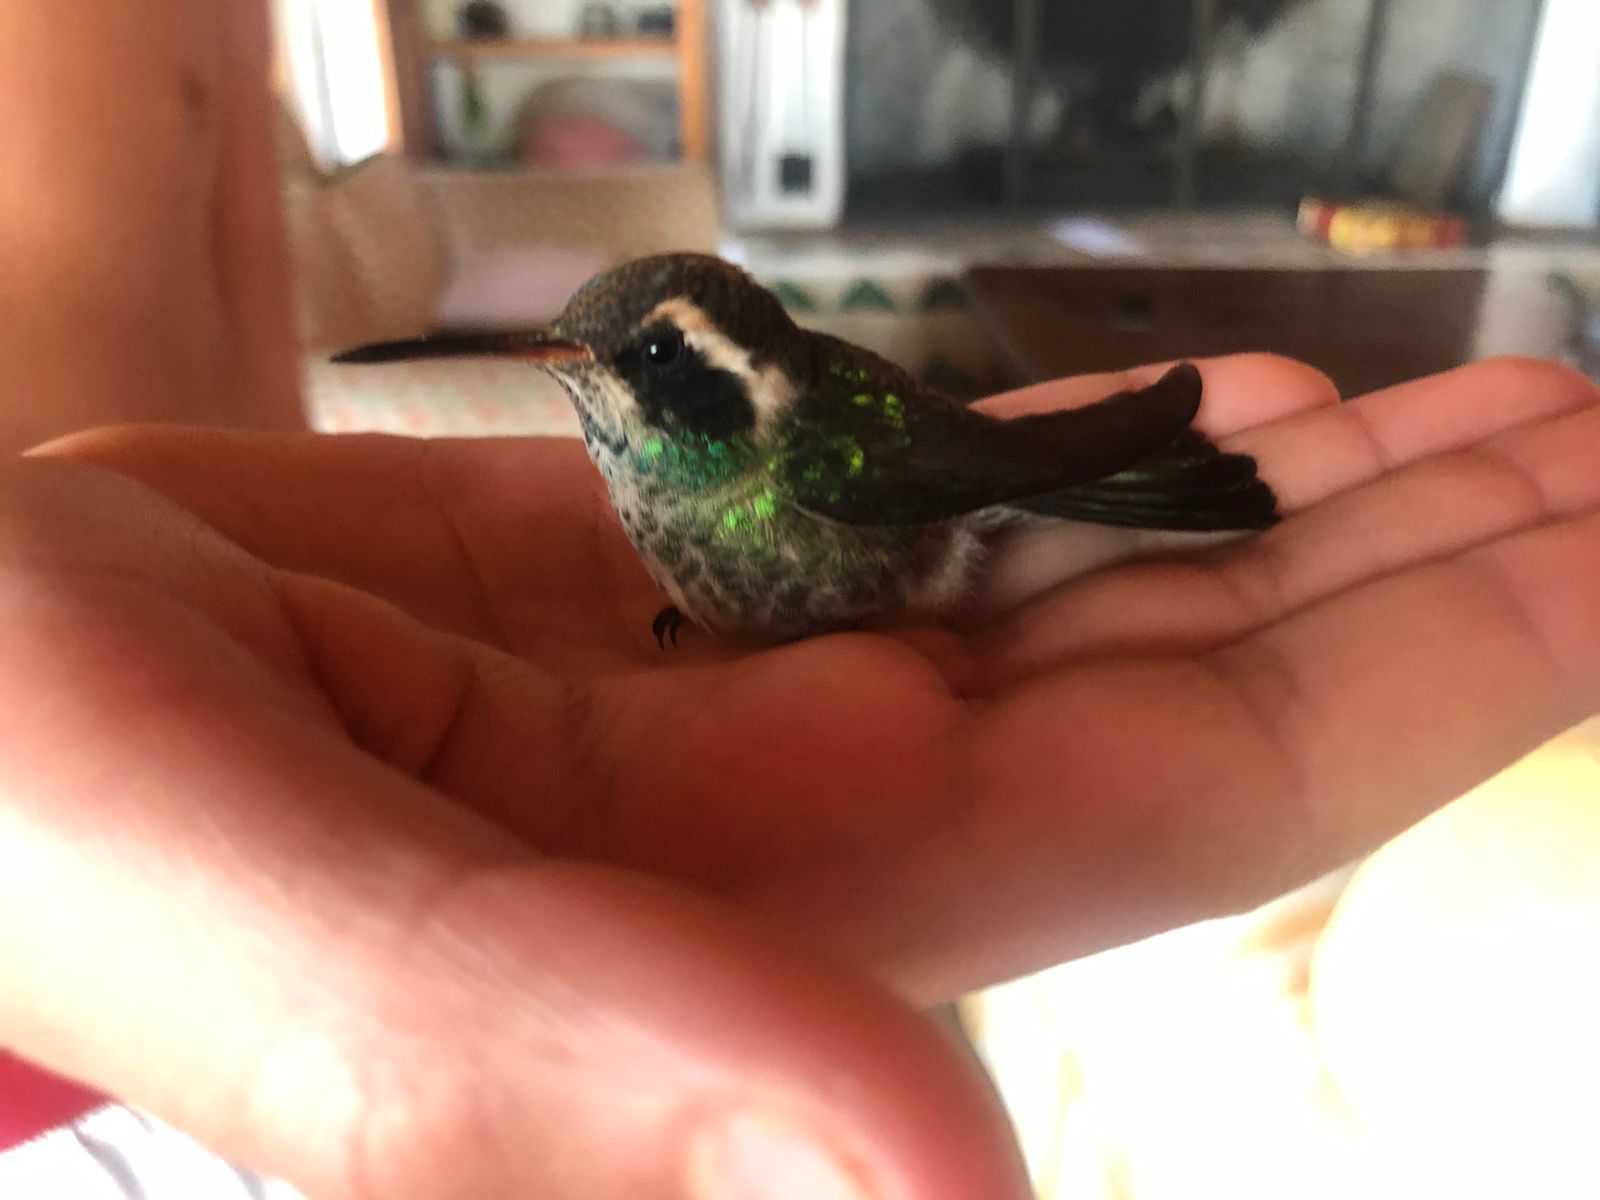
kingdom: Animalia
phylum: Chordata
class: Aves
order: Apodiformes
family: Trochilidae
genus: Basilinna
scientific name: Basilinna leucotis
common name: White-eared hummingbird
